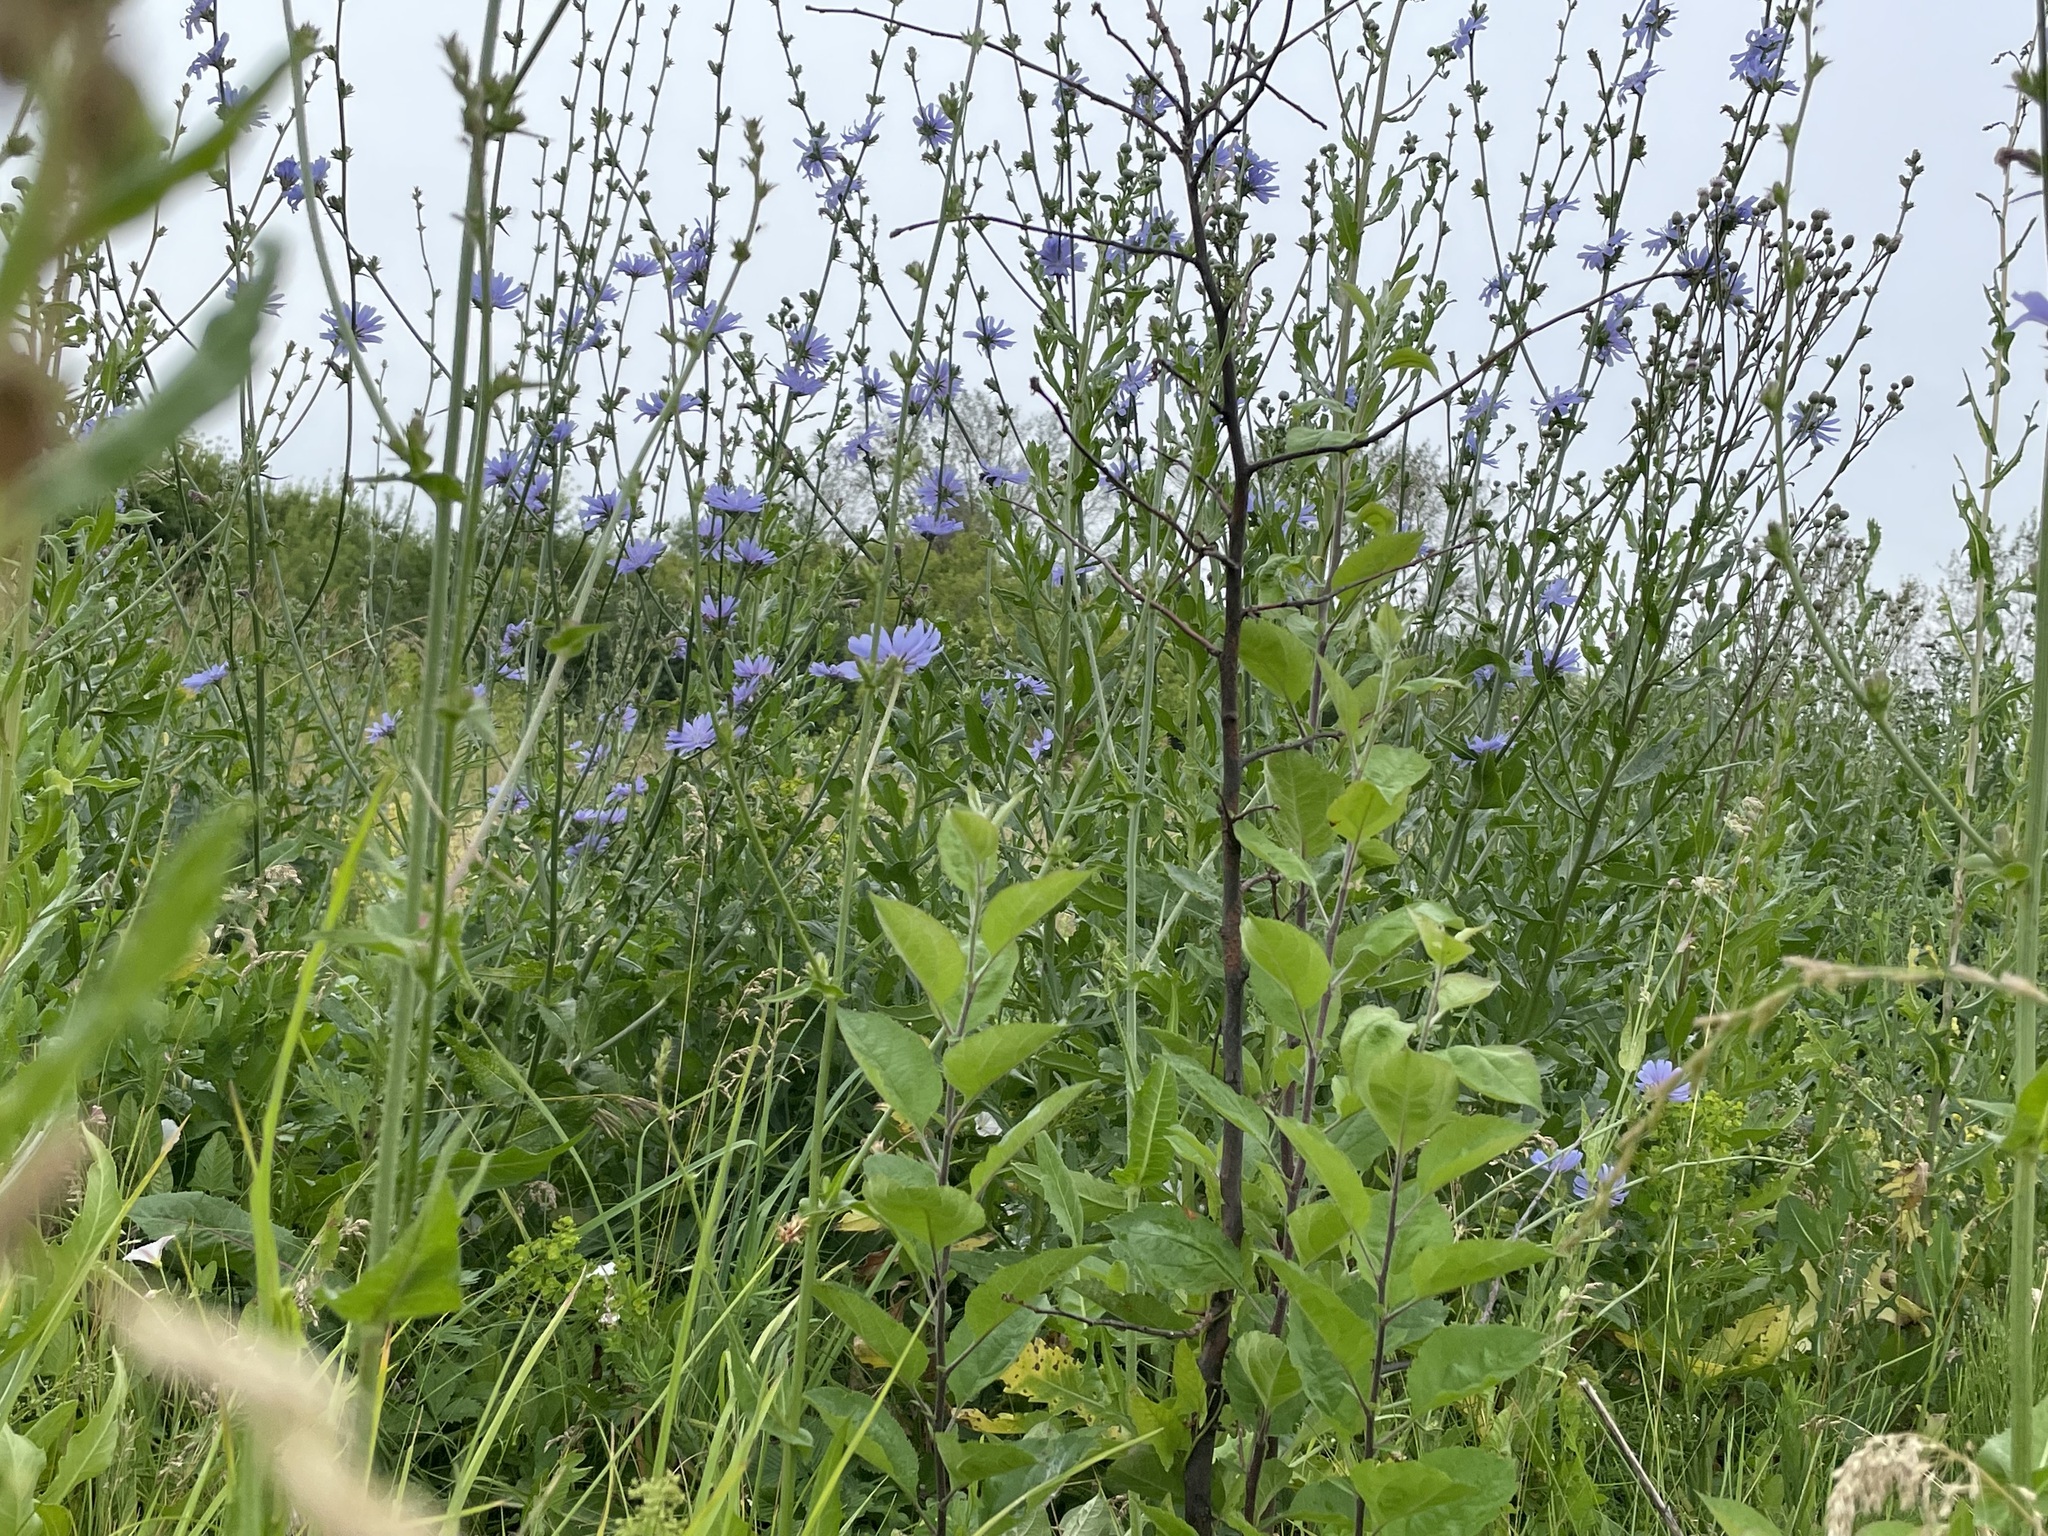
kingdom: Plantae
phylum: Tracheophyta
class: Magnoliopsida
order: Asterales
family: Asteraceae
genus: Cichorium
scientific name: Cichorium intybus
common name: Chicory
